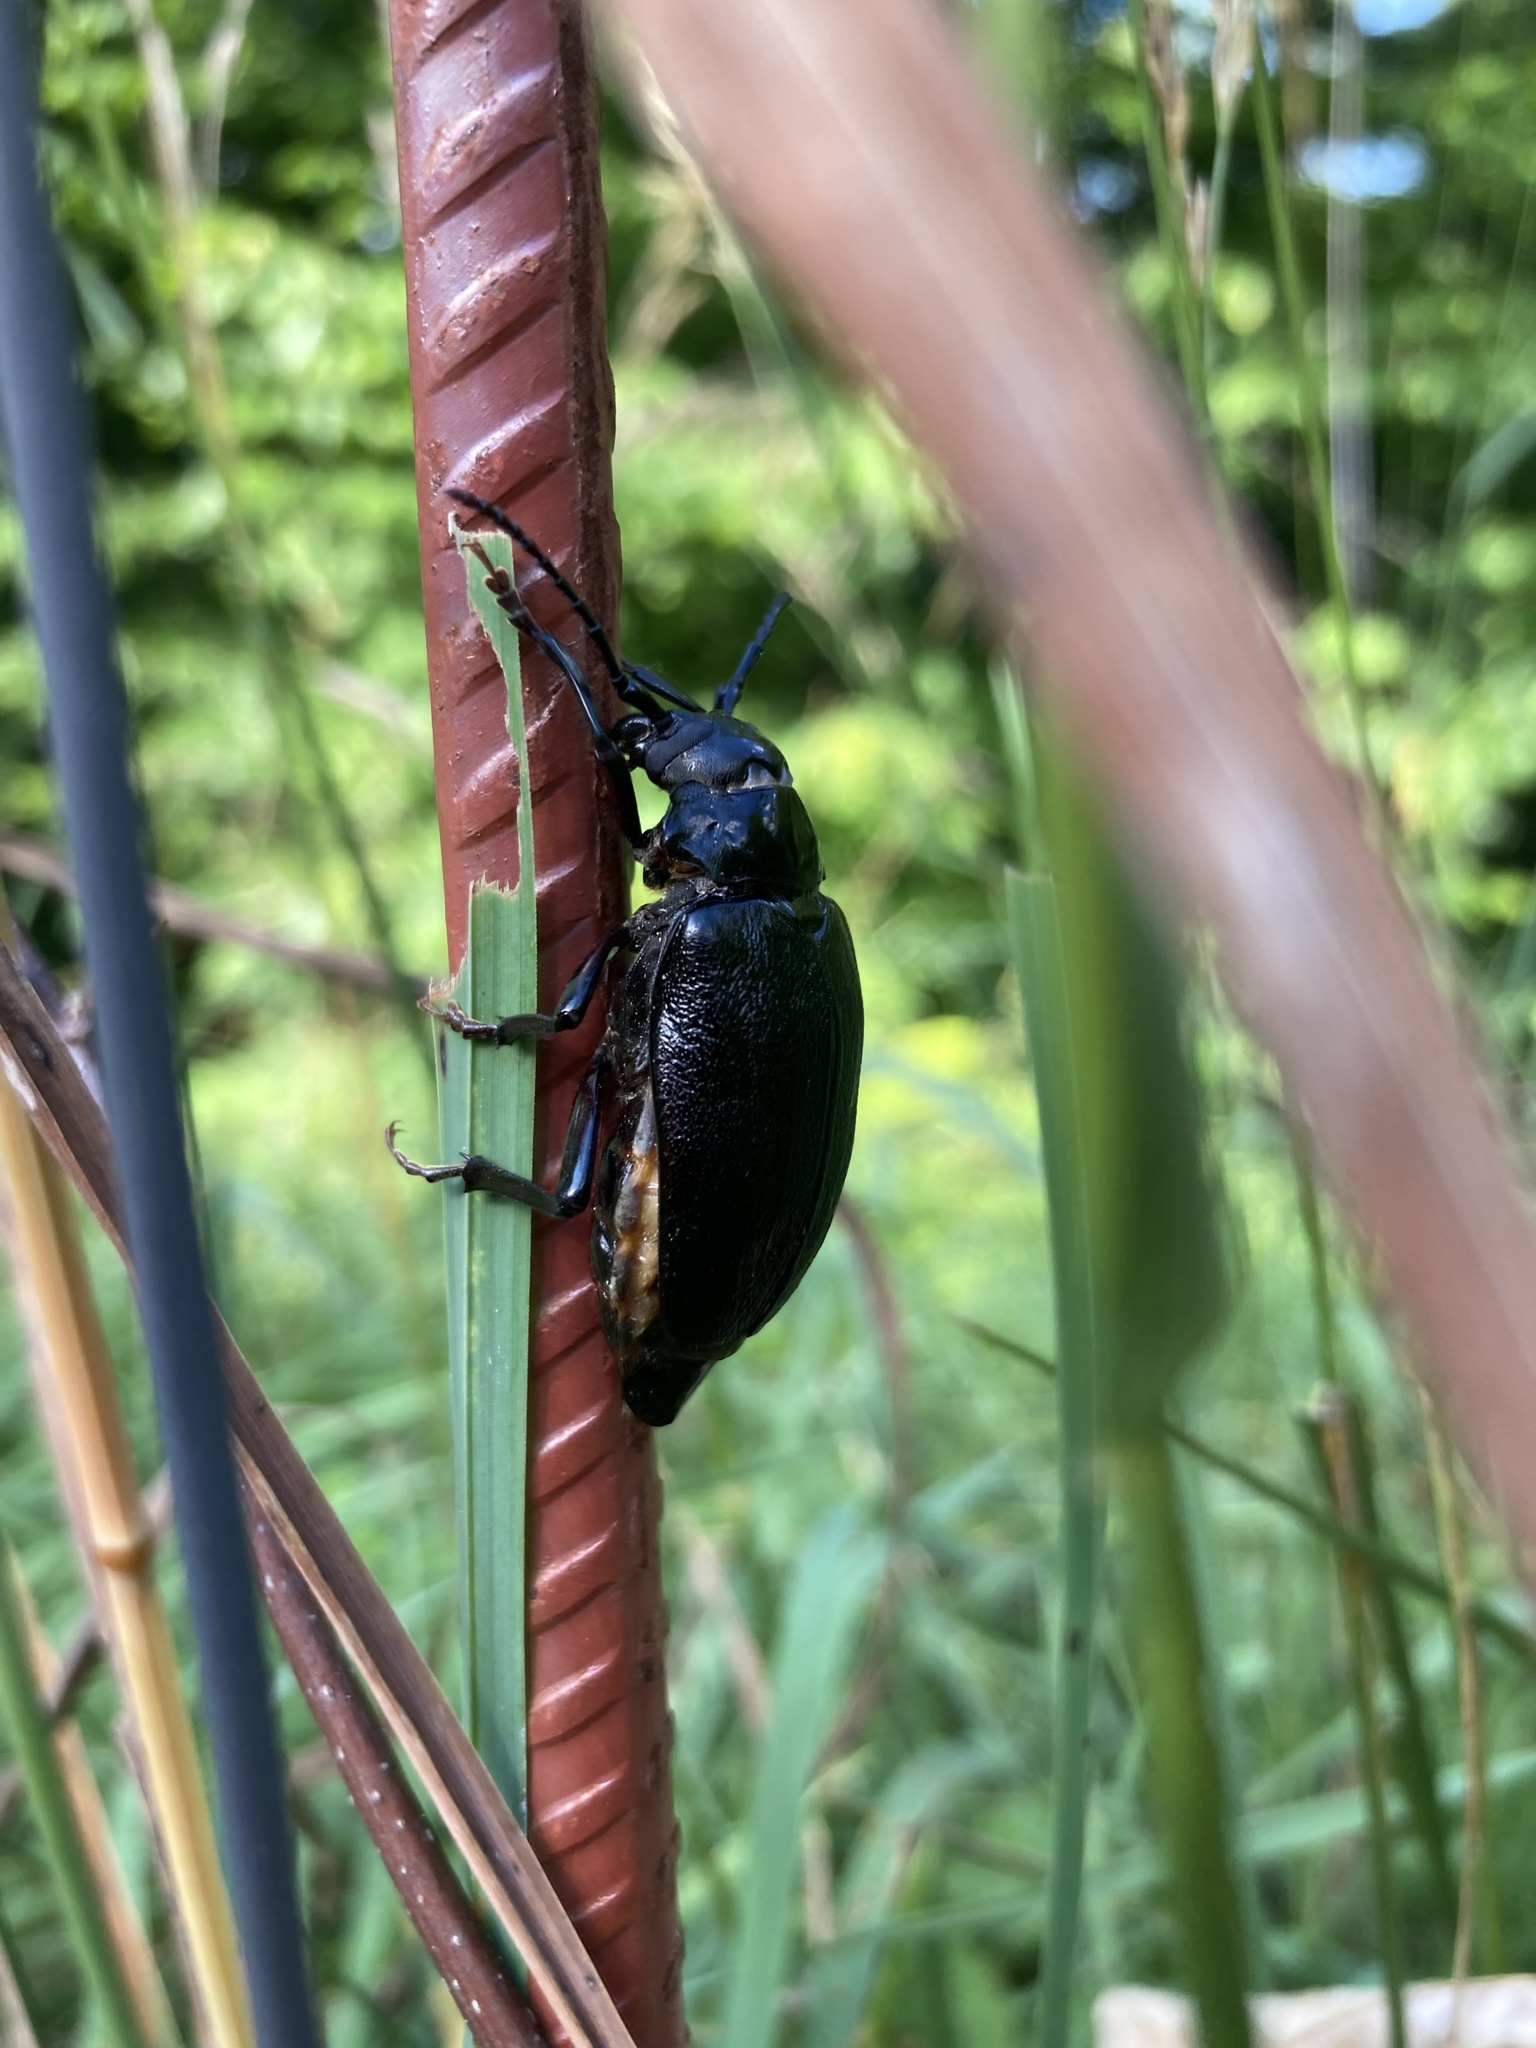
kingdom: Animalia
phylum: Arthropoda
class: Insecta
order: Coleoptera
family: Cerambycidae
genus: Prionus
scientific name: Prionus laticollis
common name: Broad necked prionus
